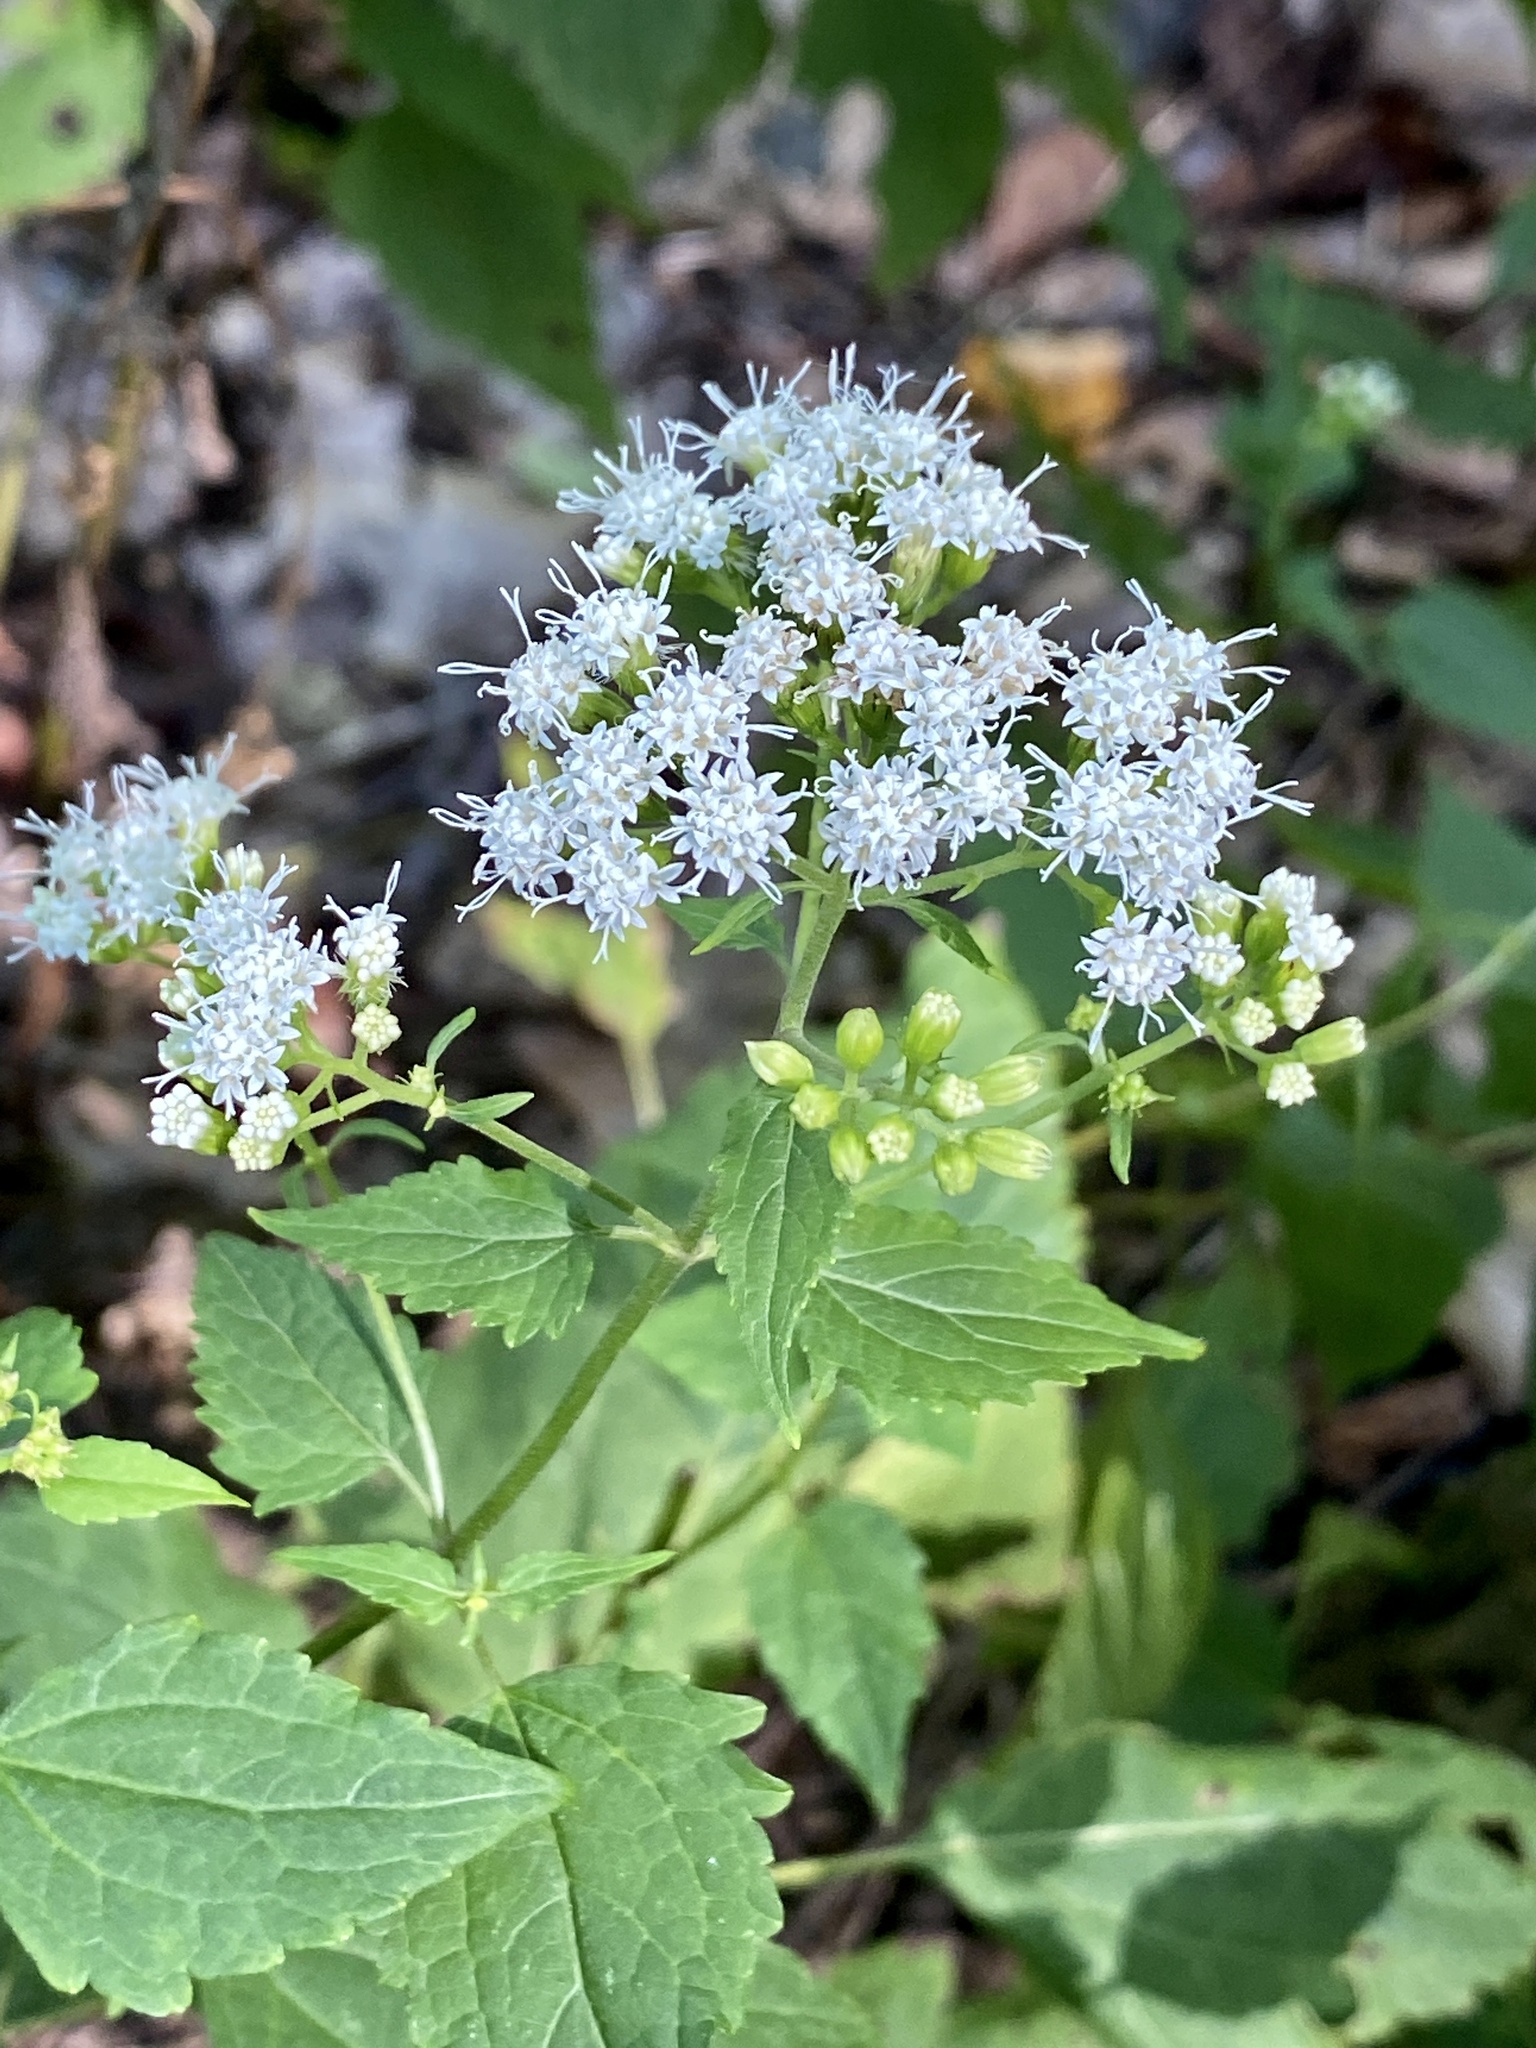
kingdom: Plantae
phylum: Tracheophyta
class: Magnoliopsida
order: Asterales
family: Asteraceae
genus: Ageratina
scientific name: Ageratina altissima
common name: White snakeroot
